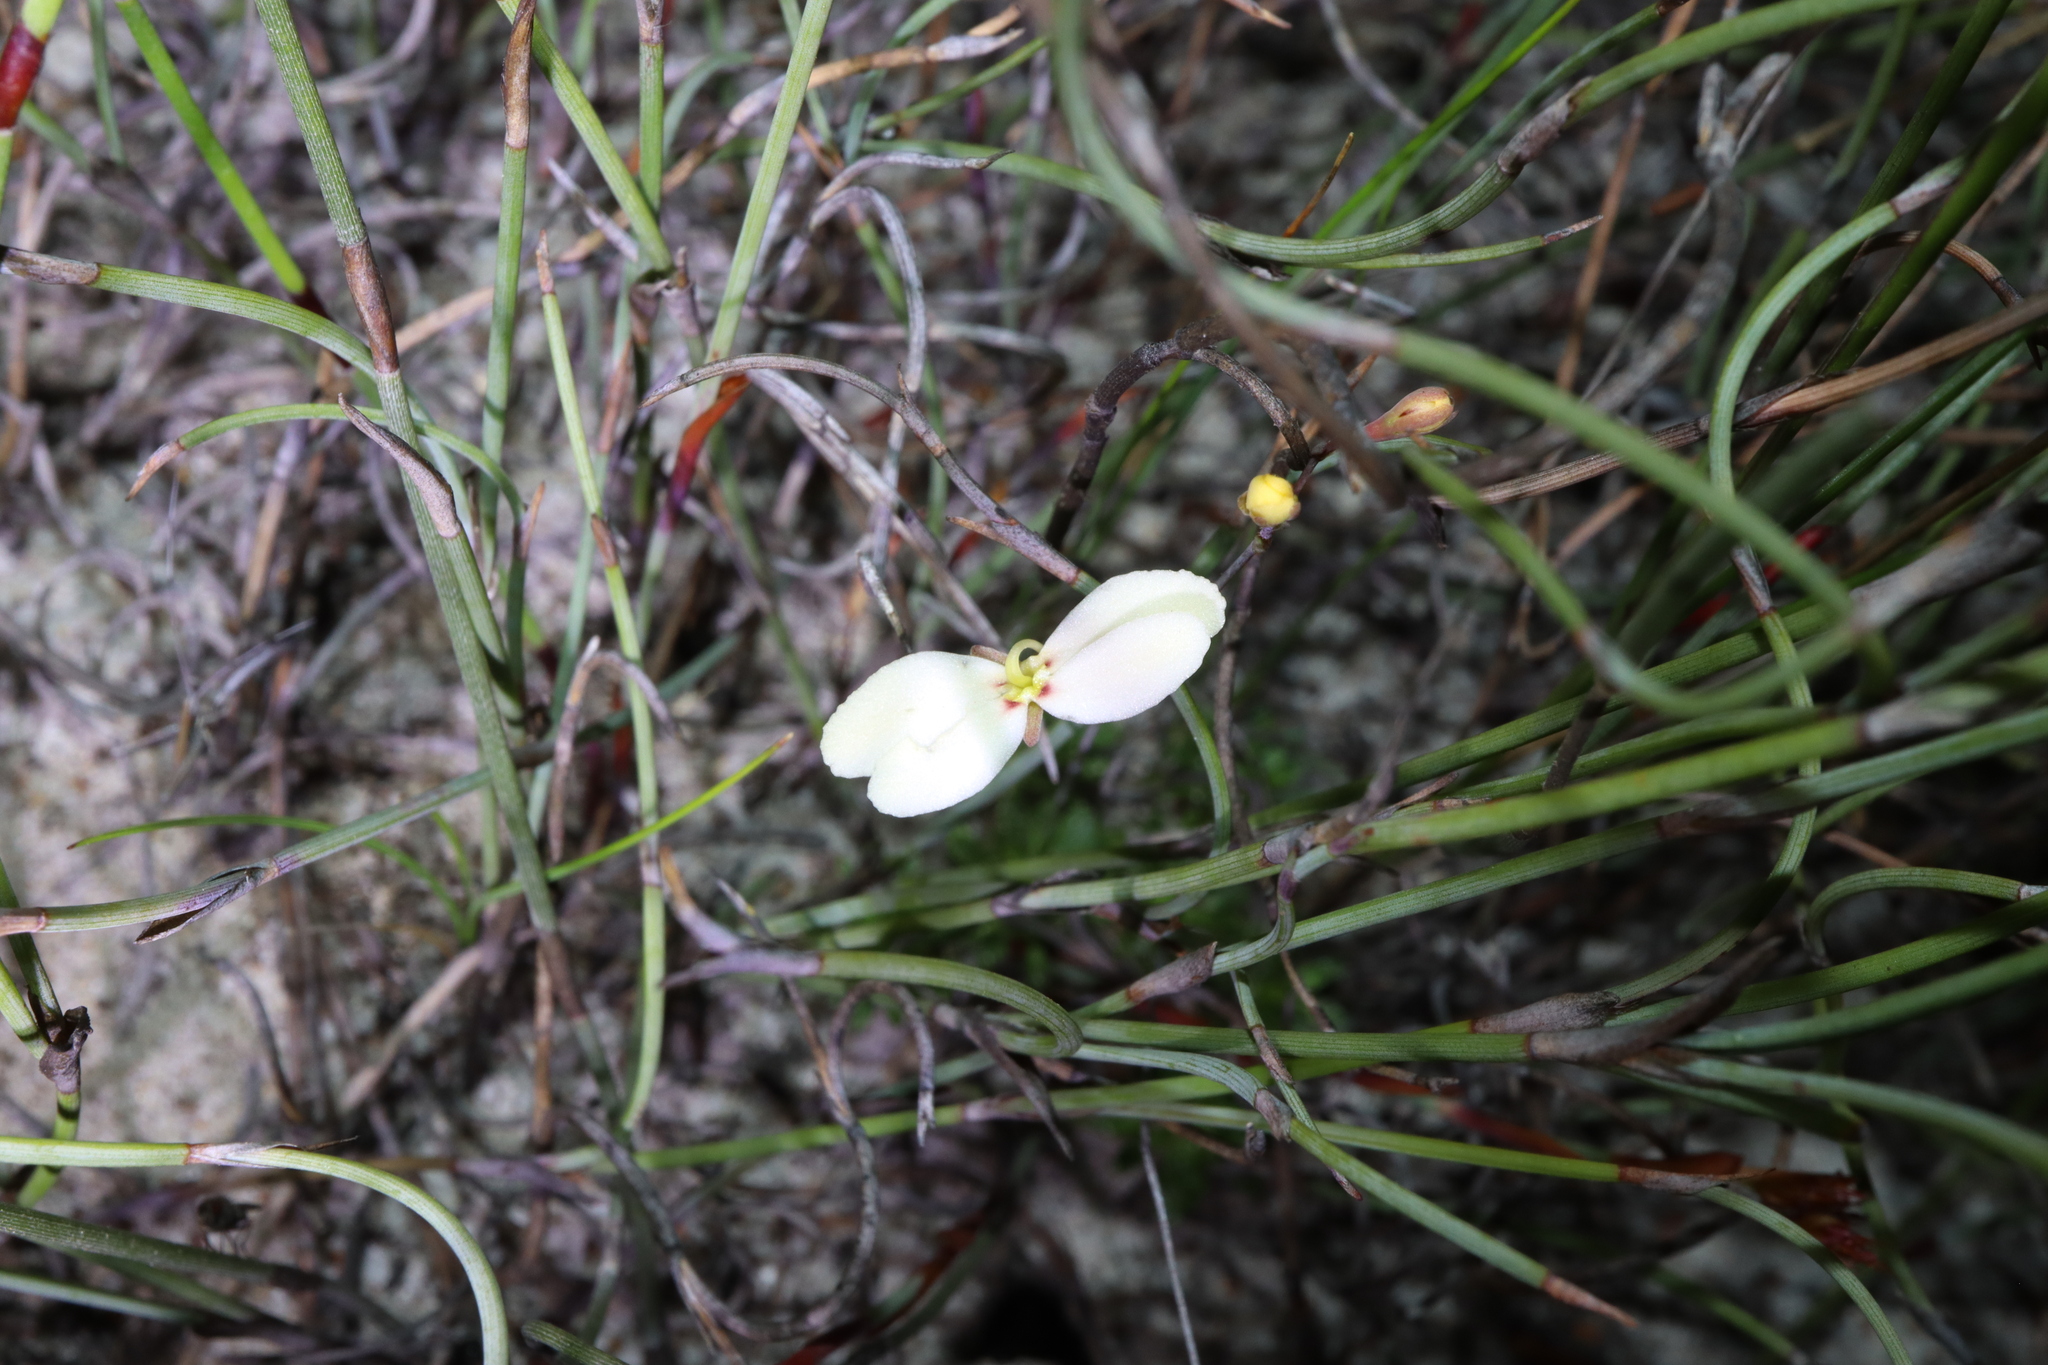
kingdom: Plantae
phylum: Tracheophyta
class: Magnoliopsida
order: Asterales
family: Stylidiaceae
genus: Stylidium
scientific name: Stylidium rupestre
